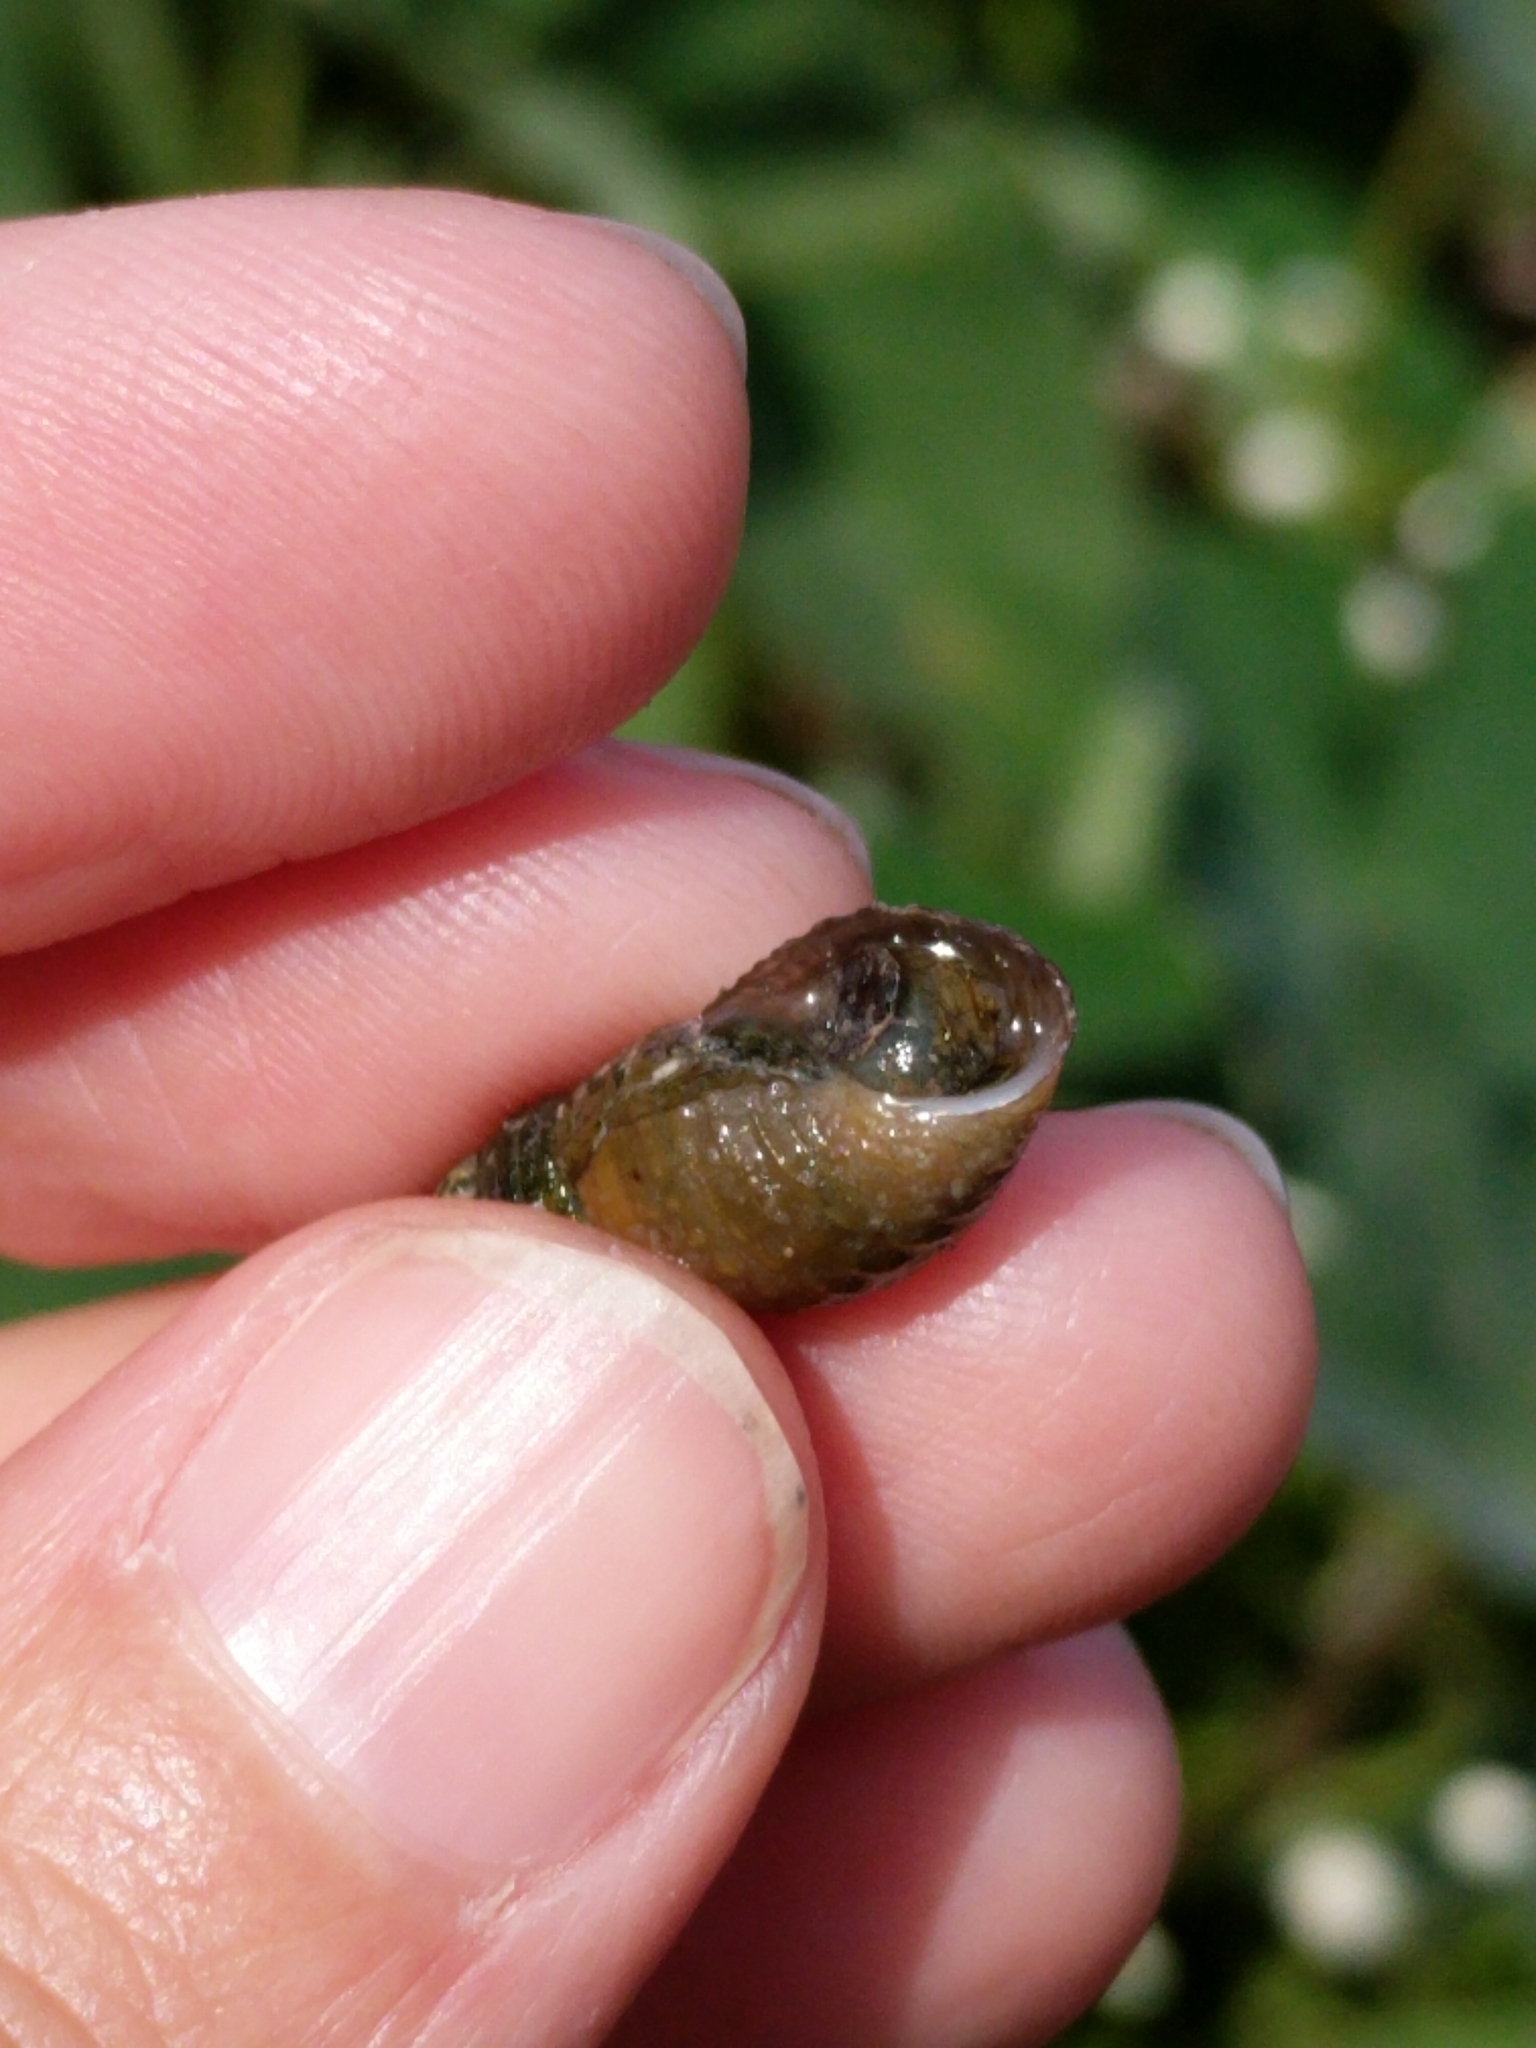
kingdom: Animalia
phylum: Mollusca
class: Gastropoda
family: Thiaridae
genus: Melanoides
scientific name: Melanoides tuberculata
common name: Red-rim melania
